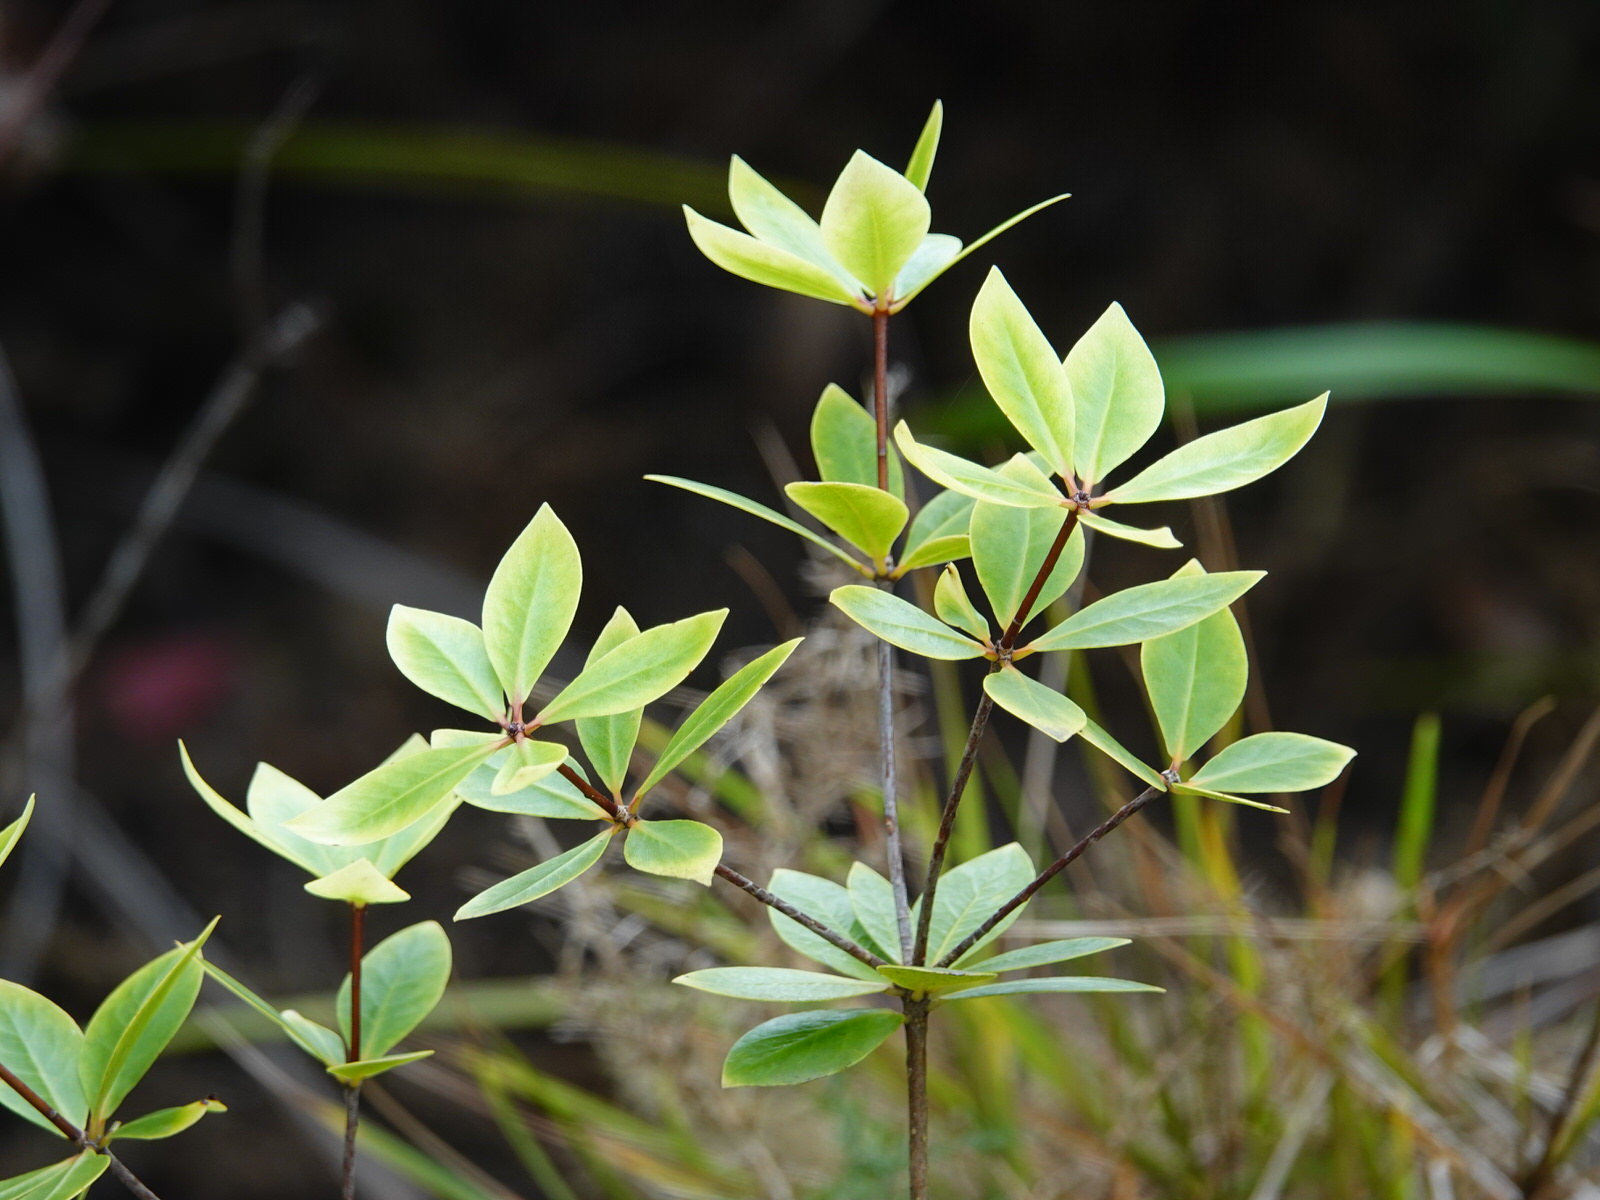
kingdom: Plantae
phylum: Tracheophyta
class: Magnoliopsida
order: Apiales
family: Pittosporaceae
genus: Pittosporum
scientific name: Pittosporum cornifolium
